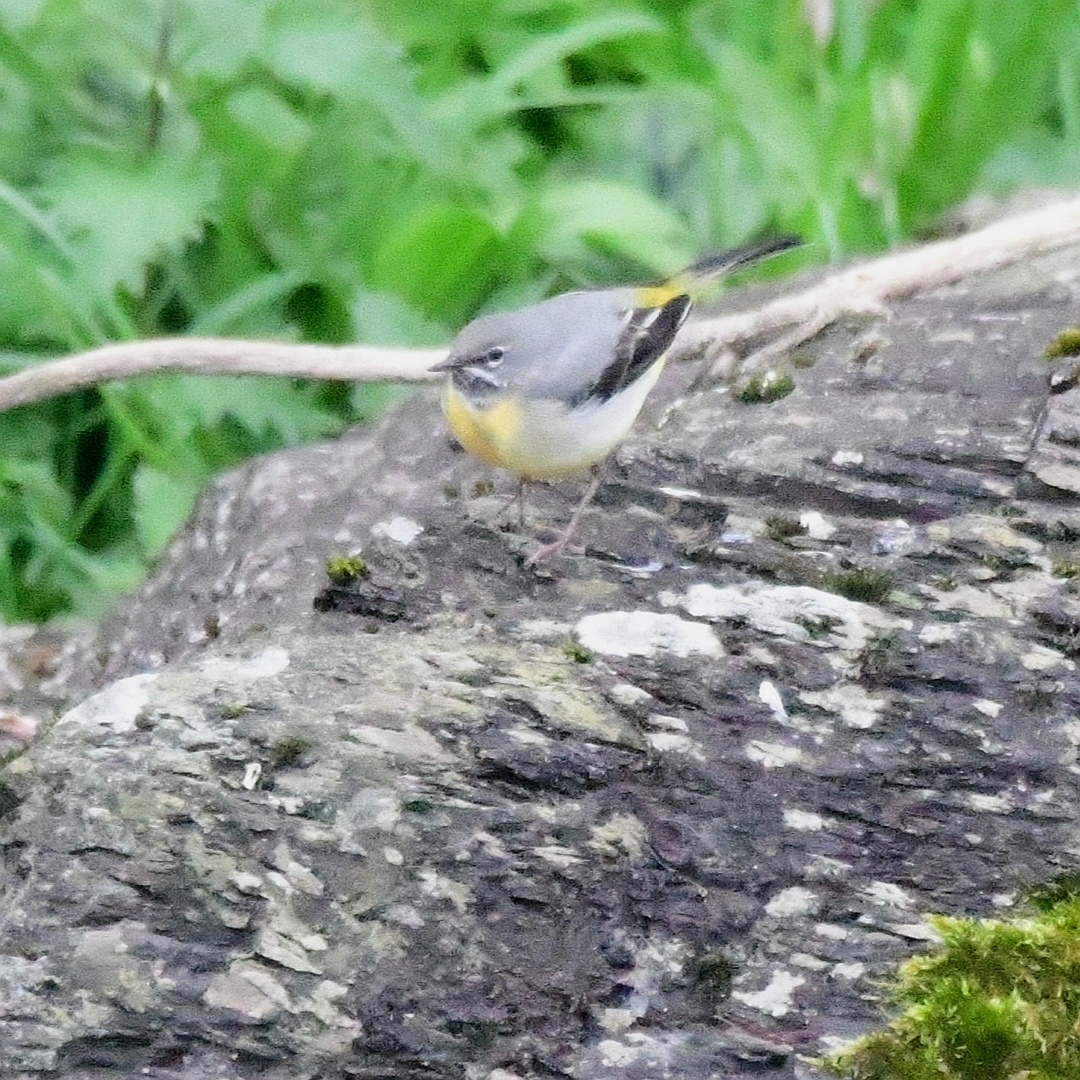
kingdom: Animalia
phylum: Chordata
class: Aves
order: Passeriformes
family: Motacillidae
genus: Motacilla
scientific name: Motacilla cinerea
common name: Grey wagtail
